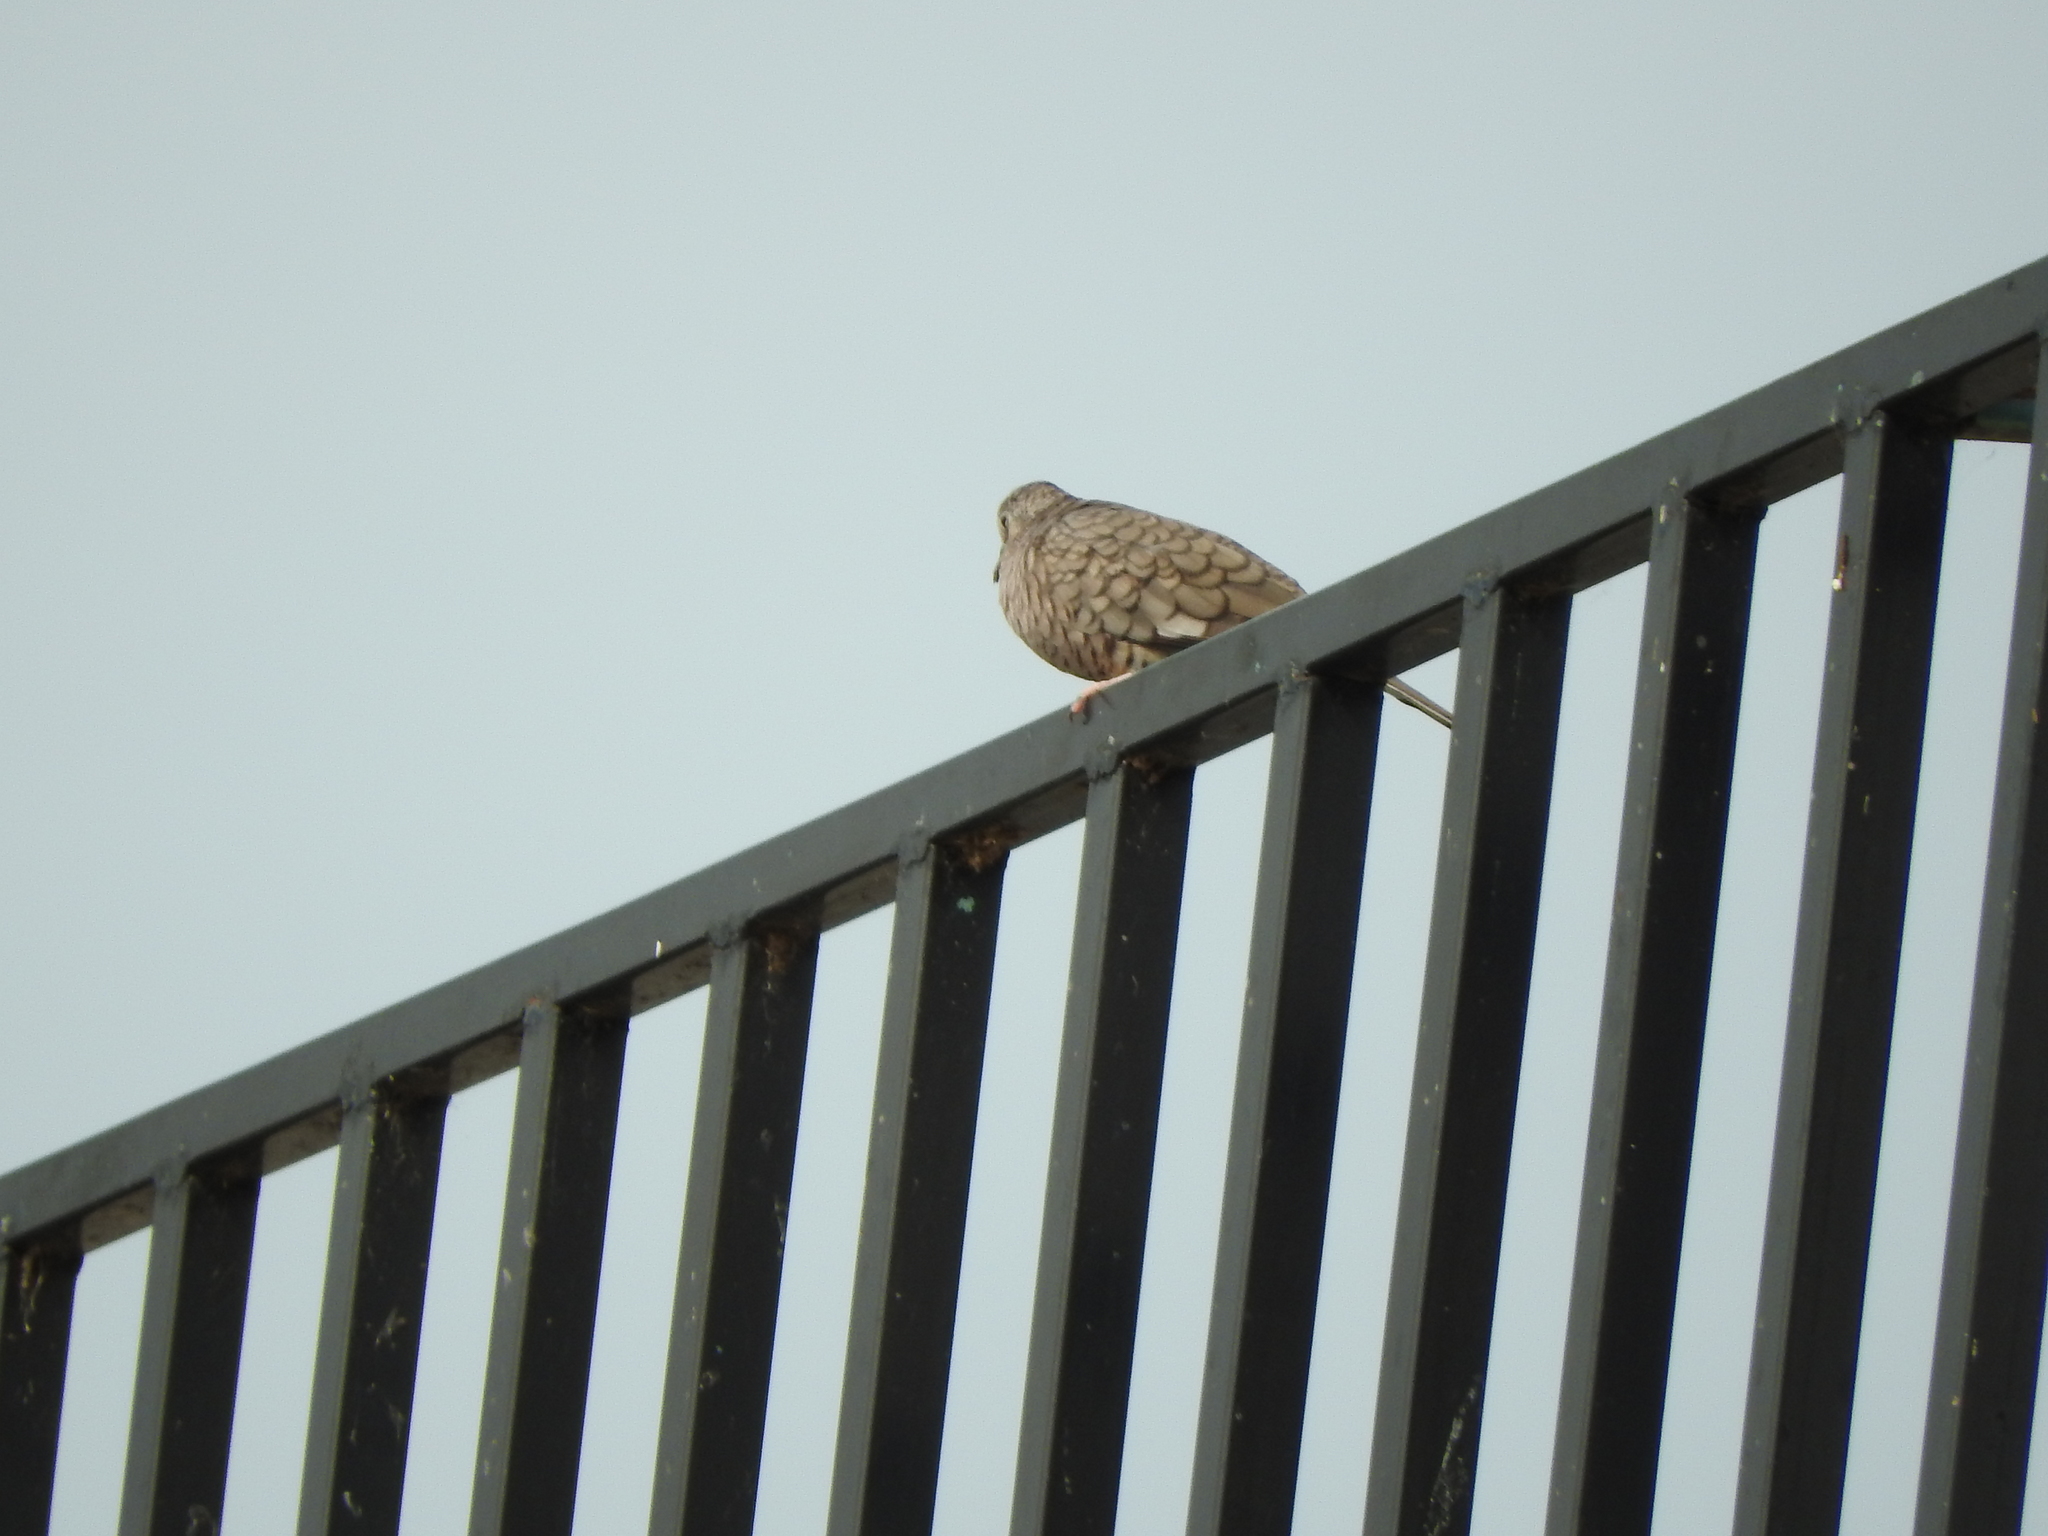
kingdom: Animalia
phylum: Chordata
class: Aves
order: Columbiformes
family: Columbidae
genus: Columbina
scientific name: Columbina inca
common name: Inca dove
